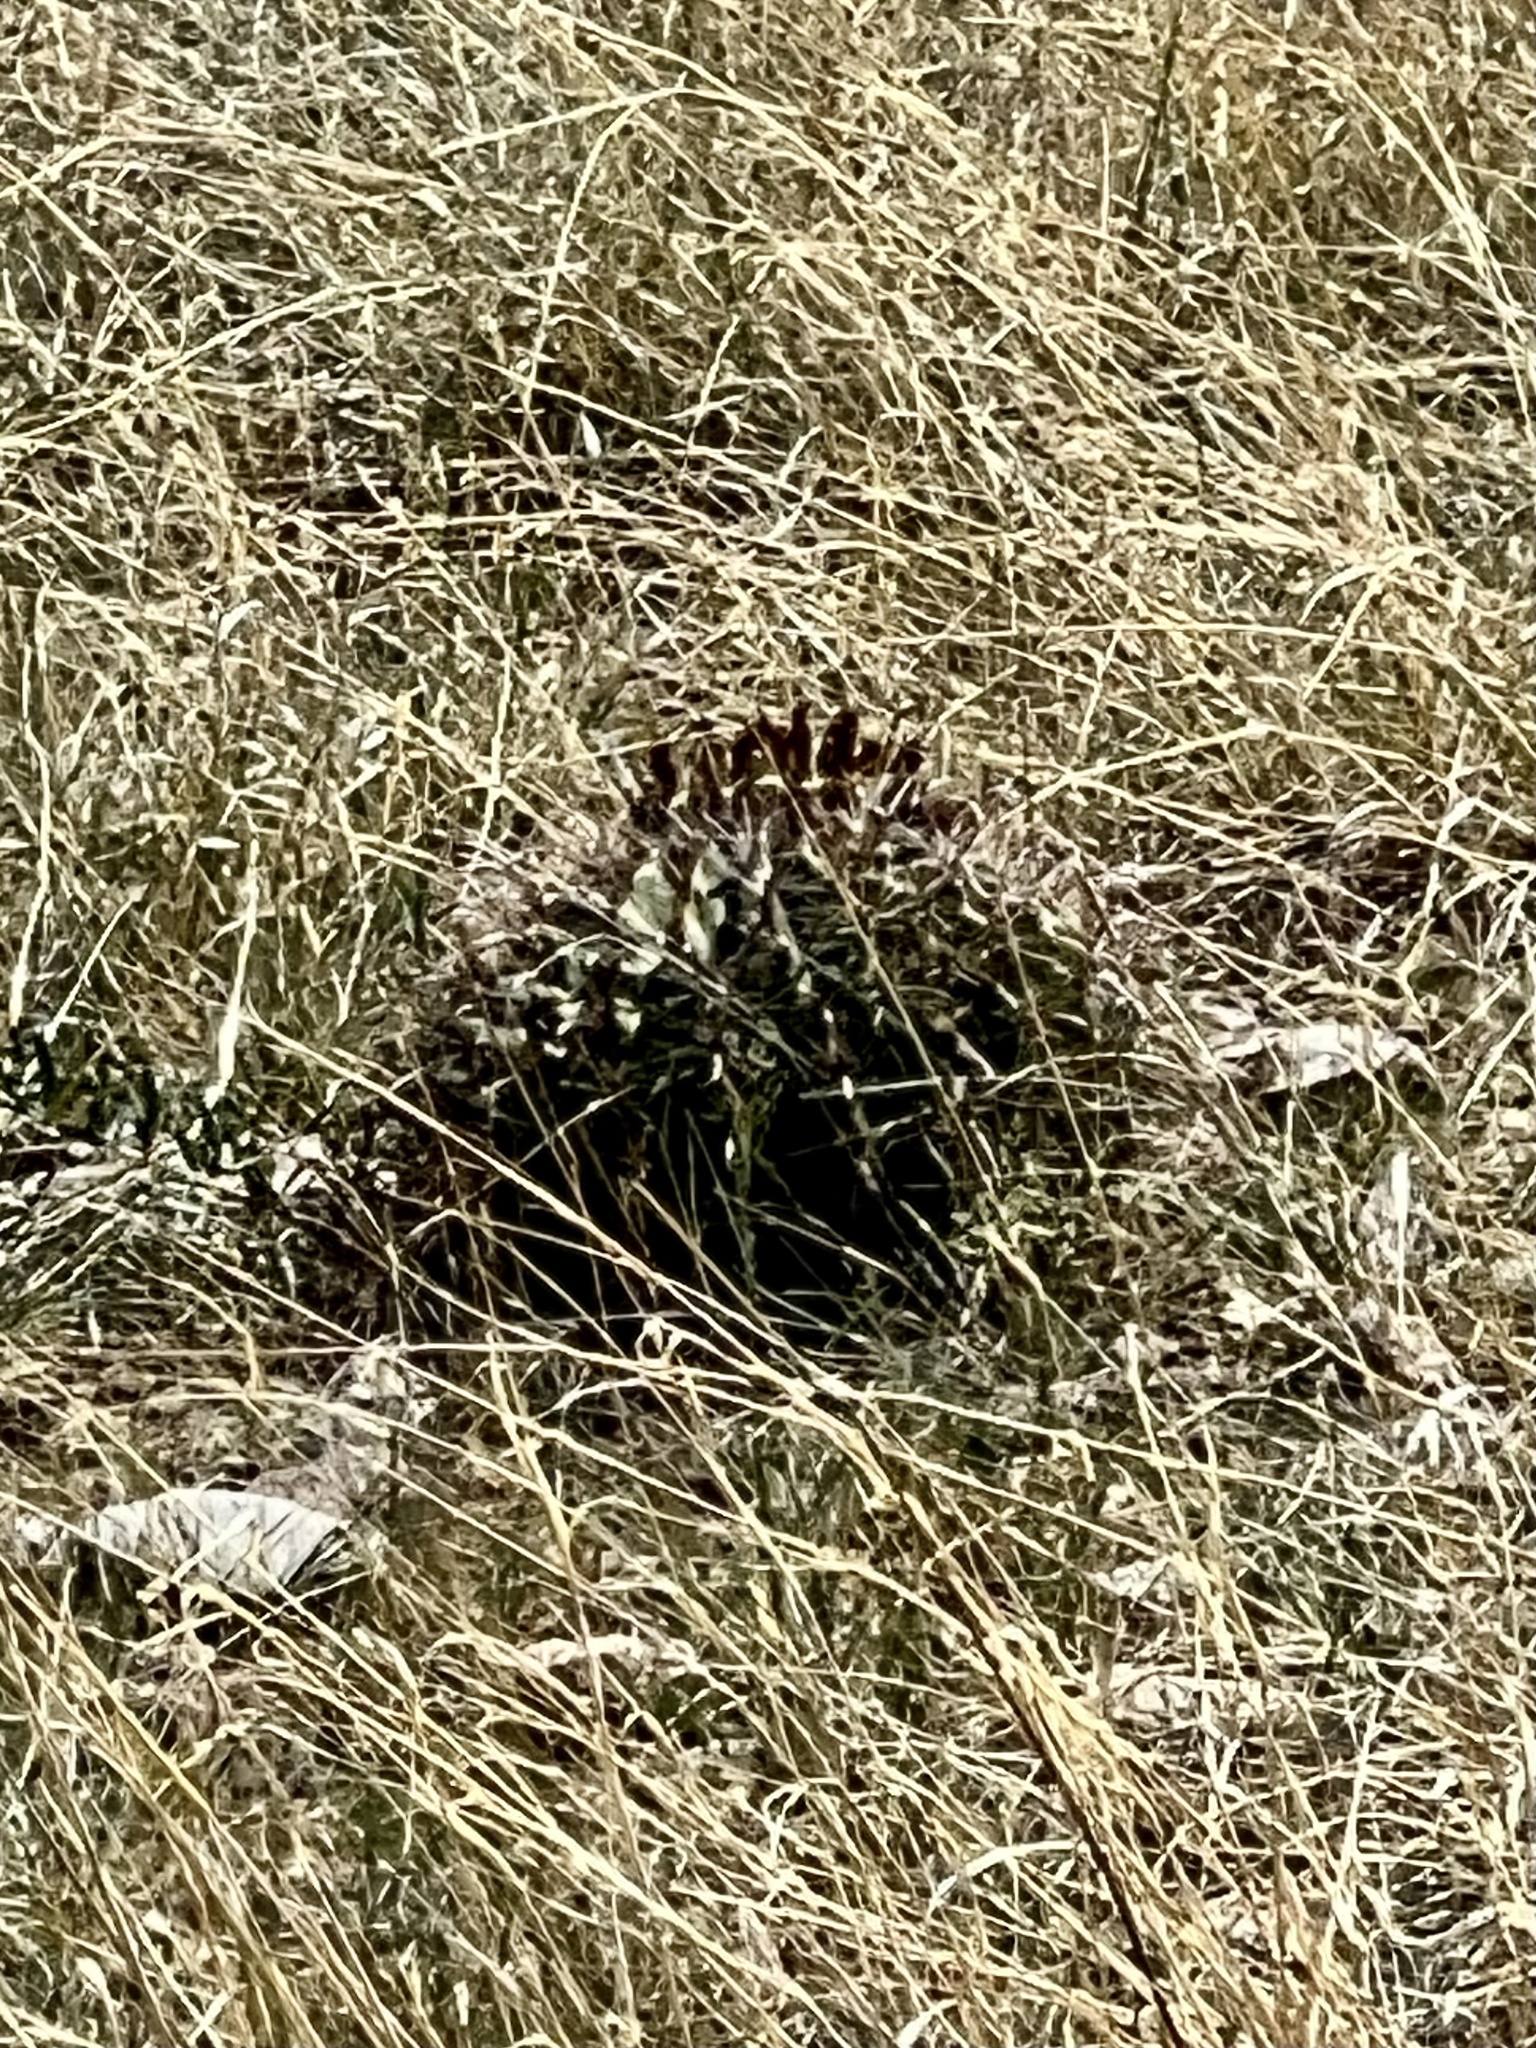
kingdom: Plantae
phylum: Tracheophyta
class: Magnoliopsida
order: Caryophyllales
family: Cactaceae
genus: Ferocactus
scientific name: Ferocactus wislizeni
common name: Candy barrel cactus
